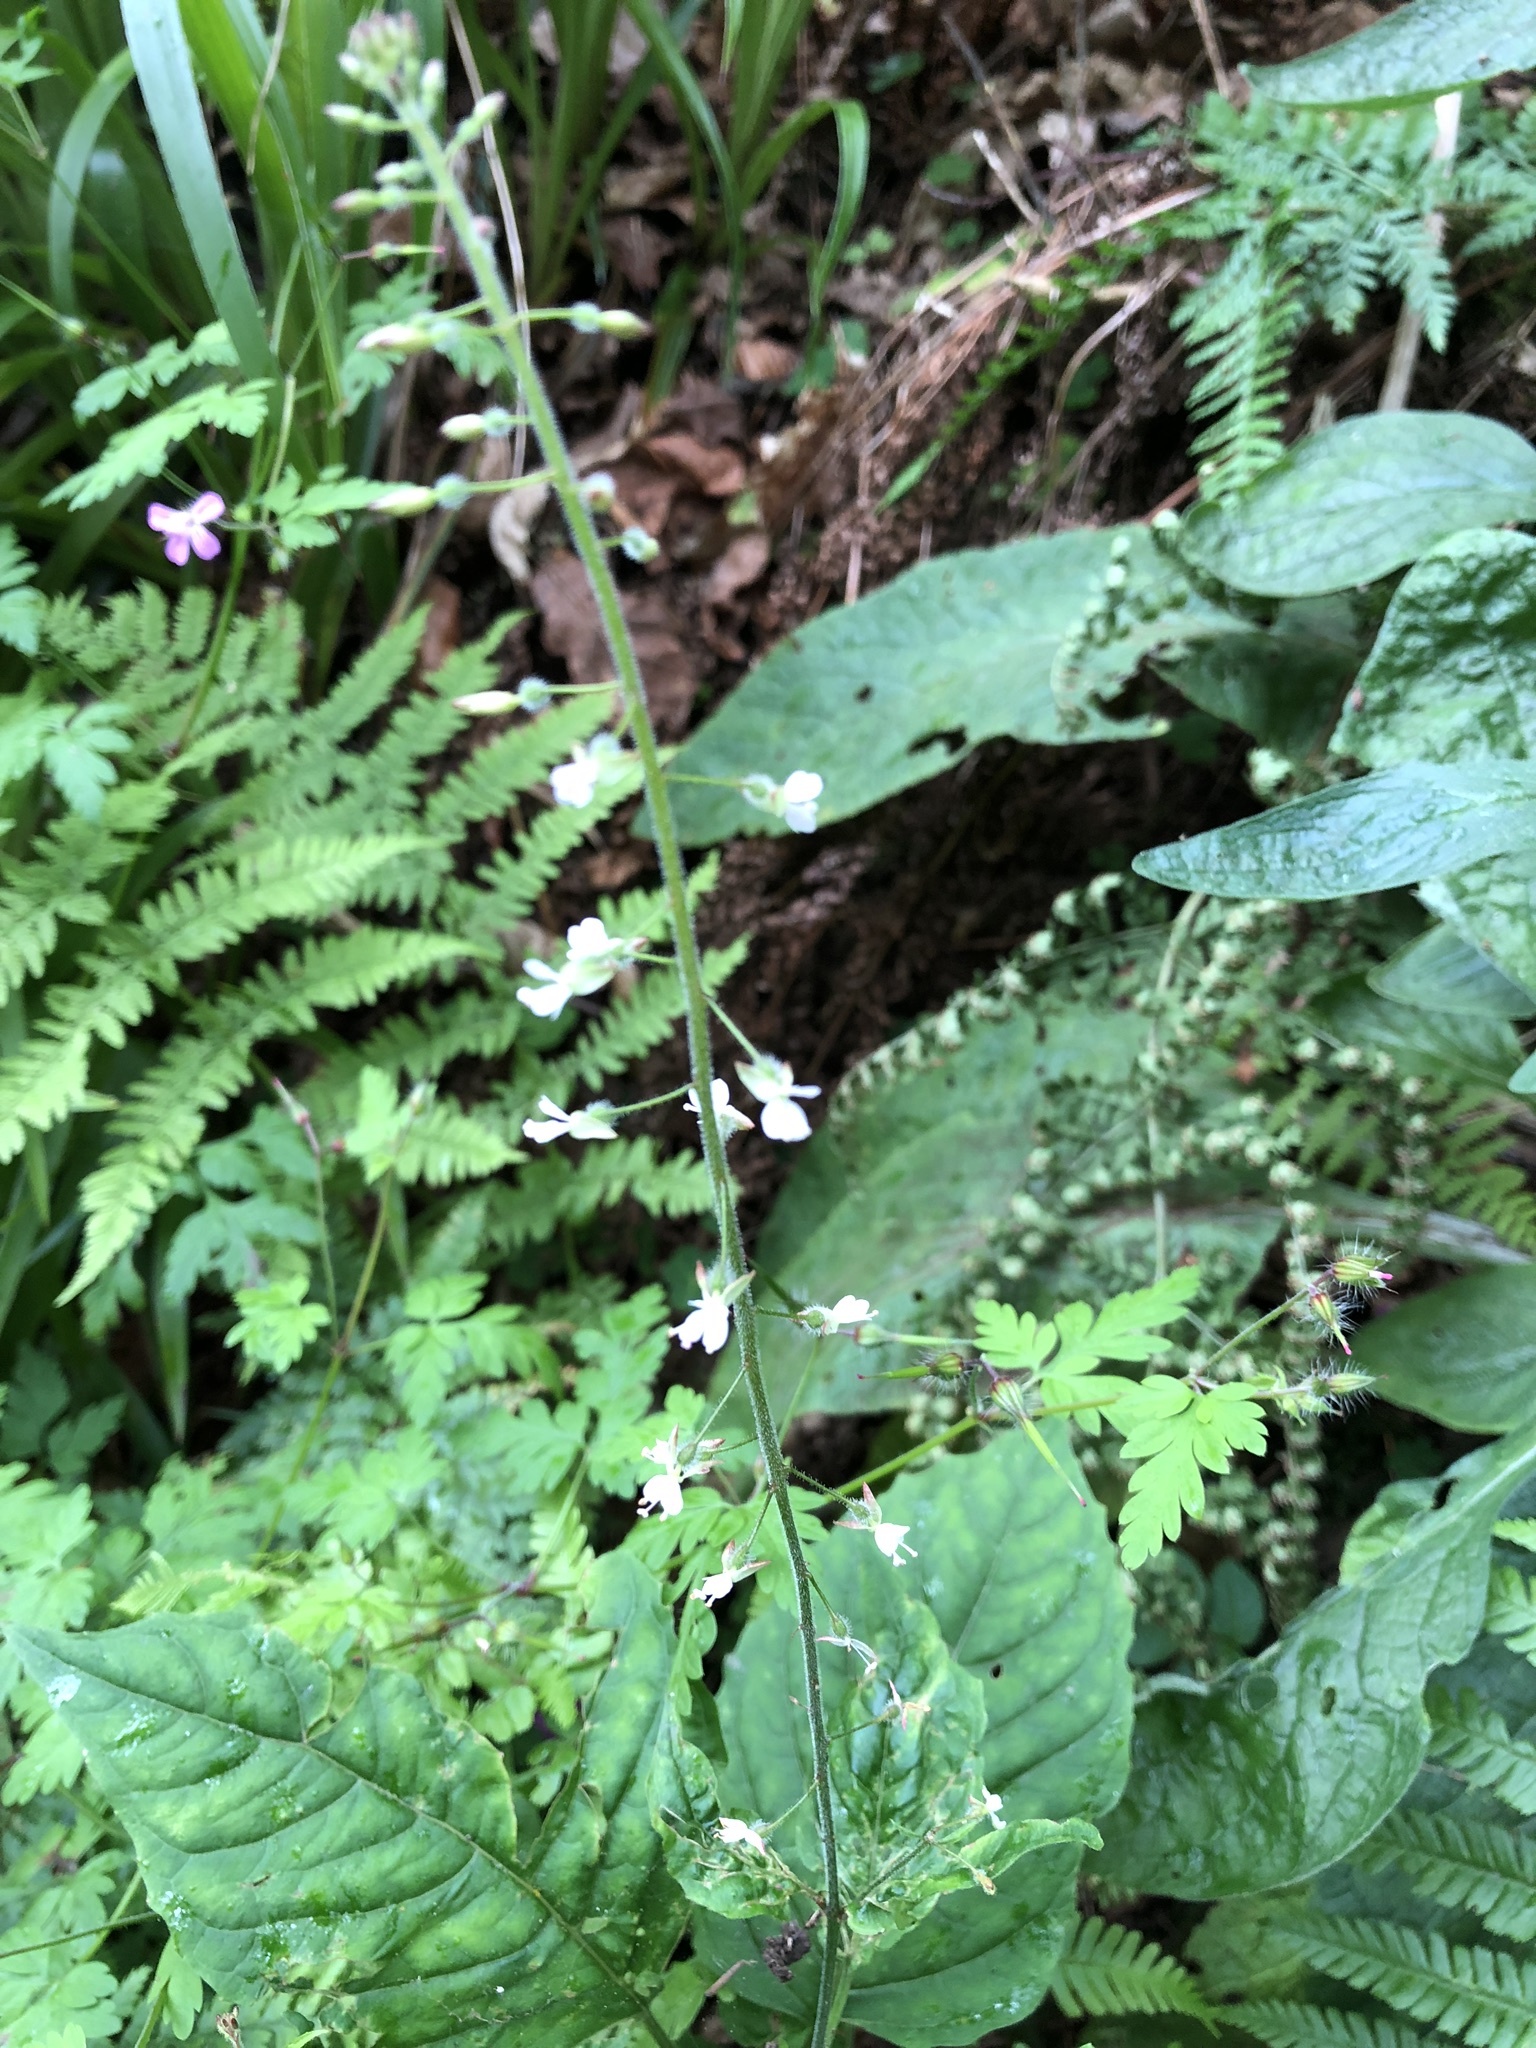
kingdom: Plantae
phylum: Tracheophyta
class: Magnoliopsida
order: Myrtales
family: Onagraceae
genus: Circaea
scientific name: Circaea lutetiana
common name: Enchanter's-nightshade
